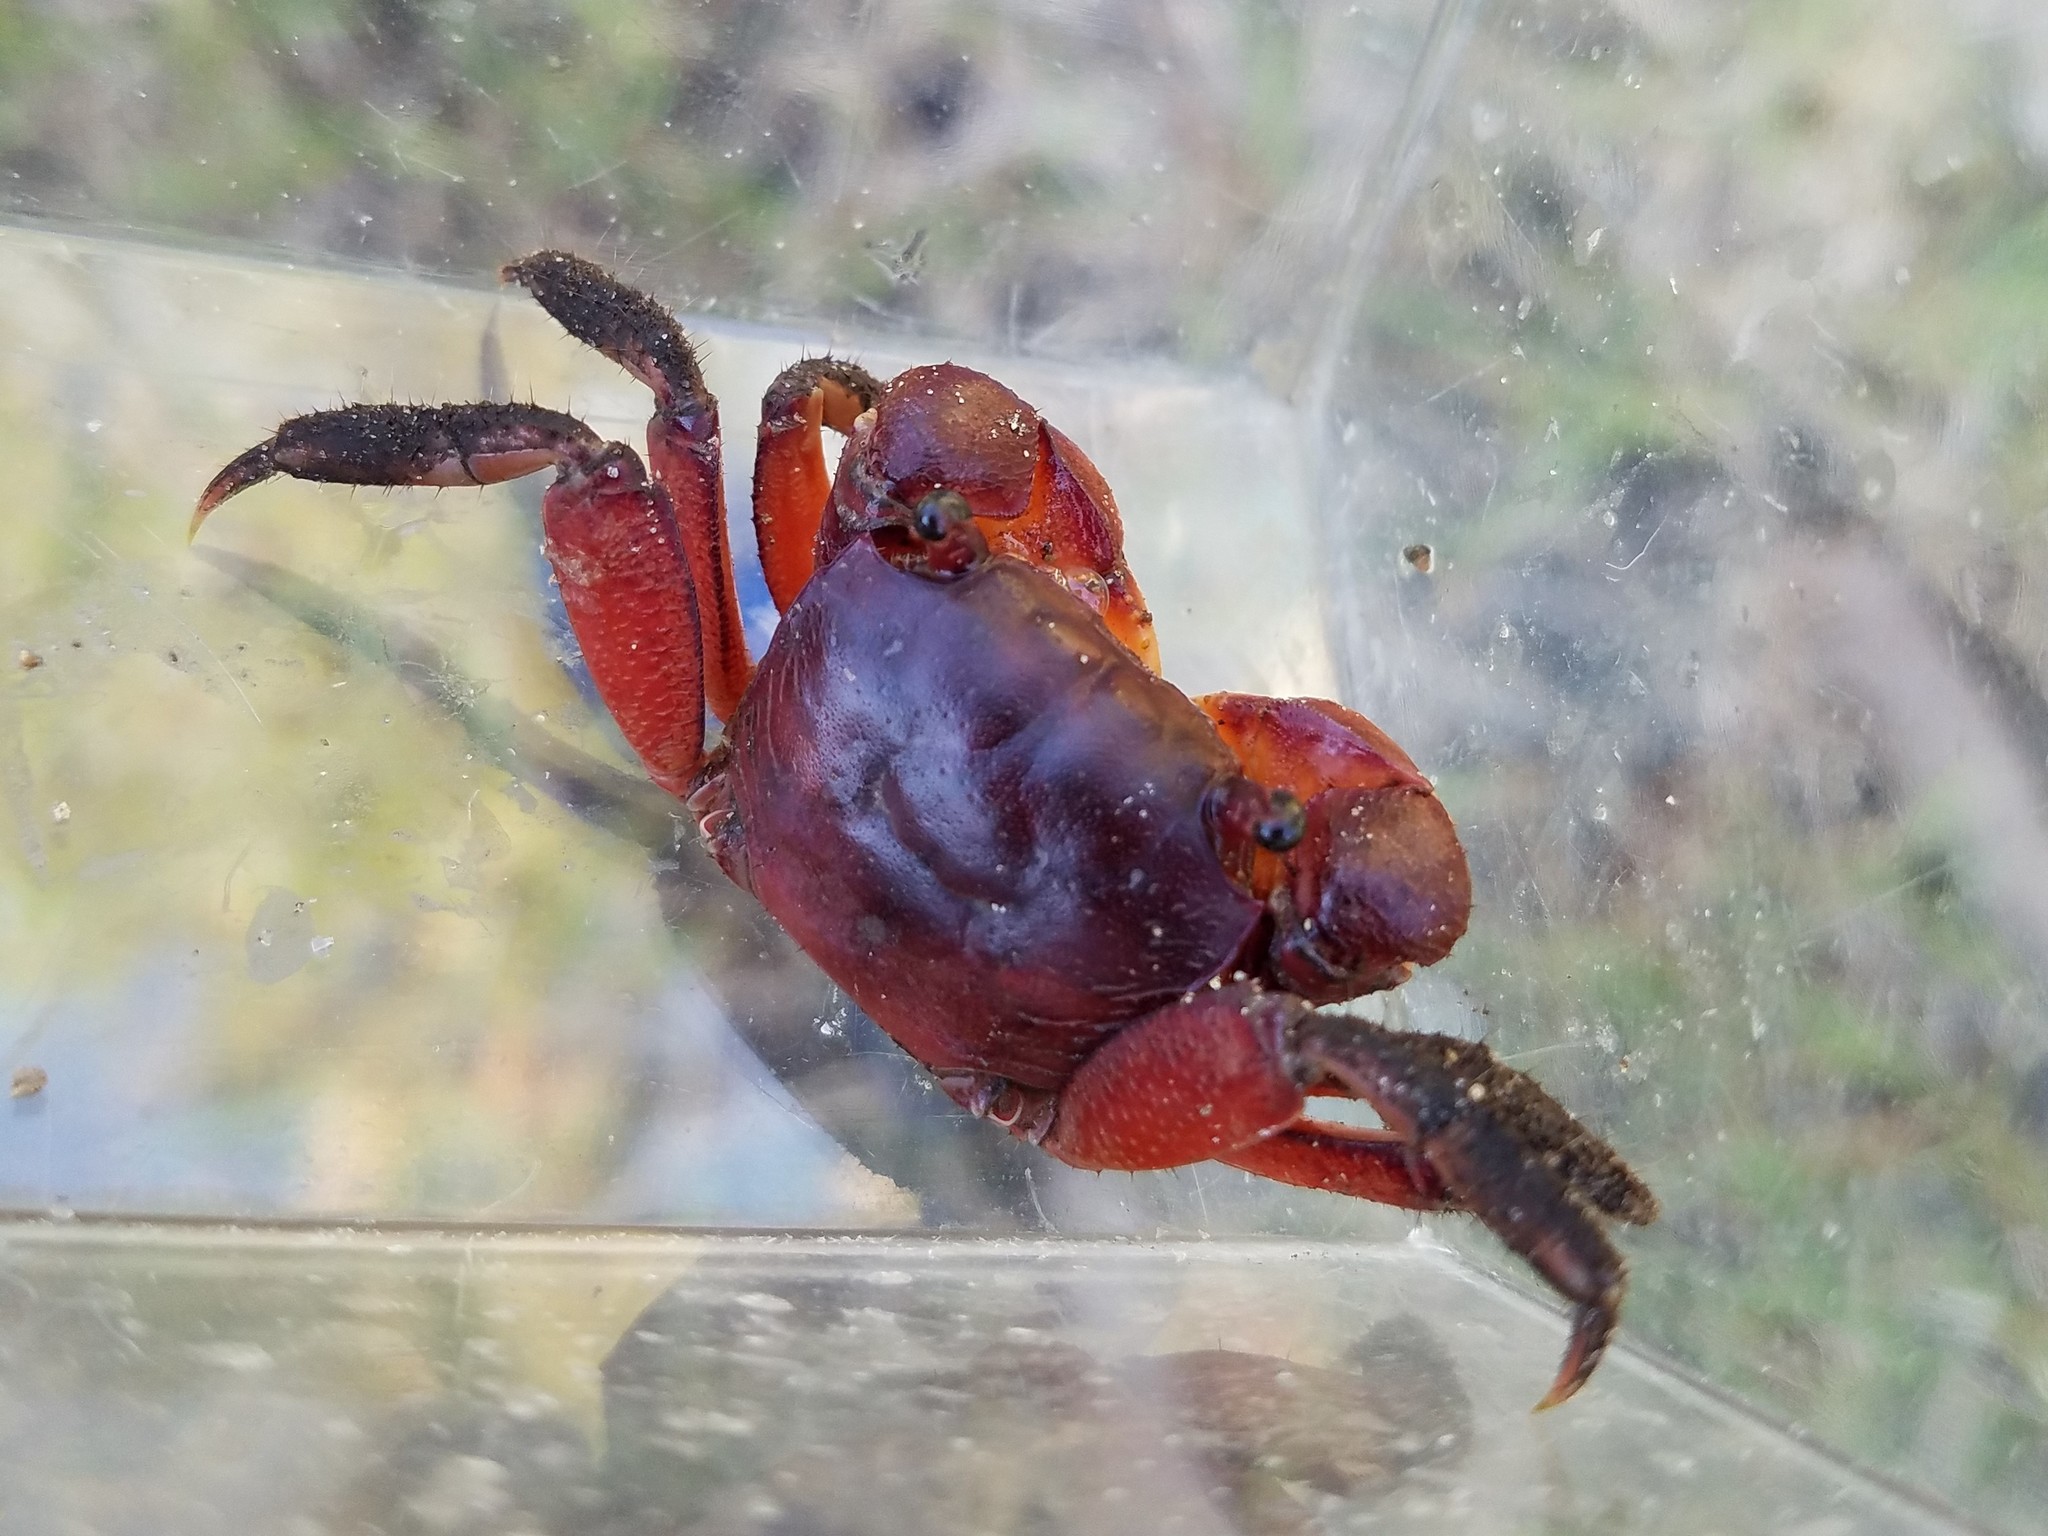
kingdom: Animalia
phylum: Arthropoda
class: Malacostraca
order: Decapoda
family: Sesarmidae
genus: Sesarma
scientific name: Sesarma reticulatum
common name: Heavy marsh crab
